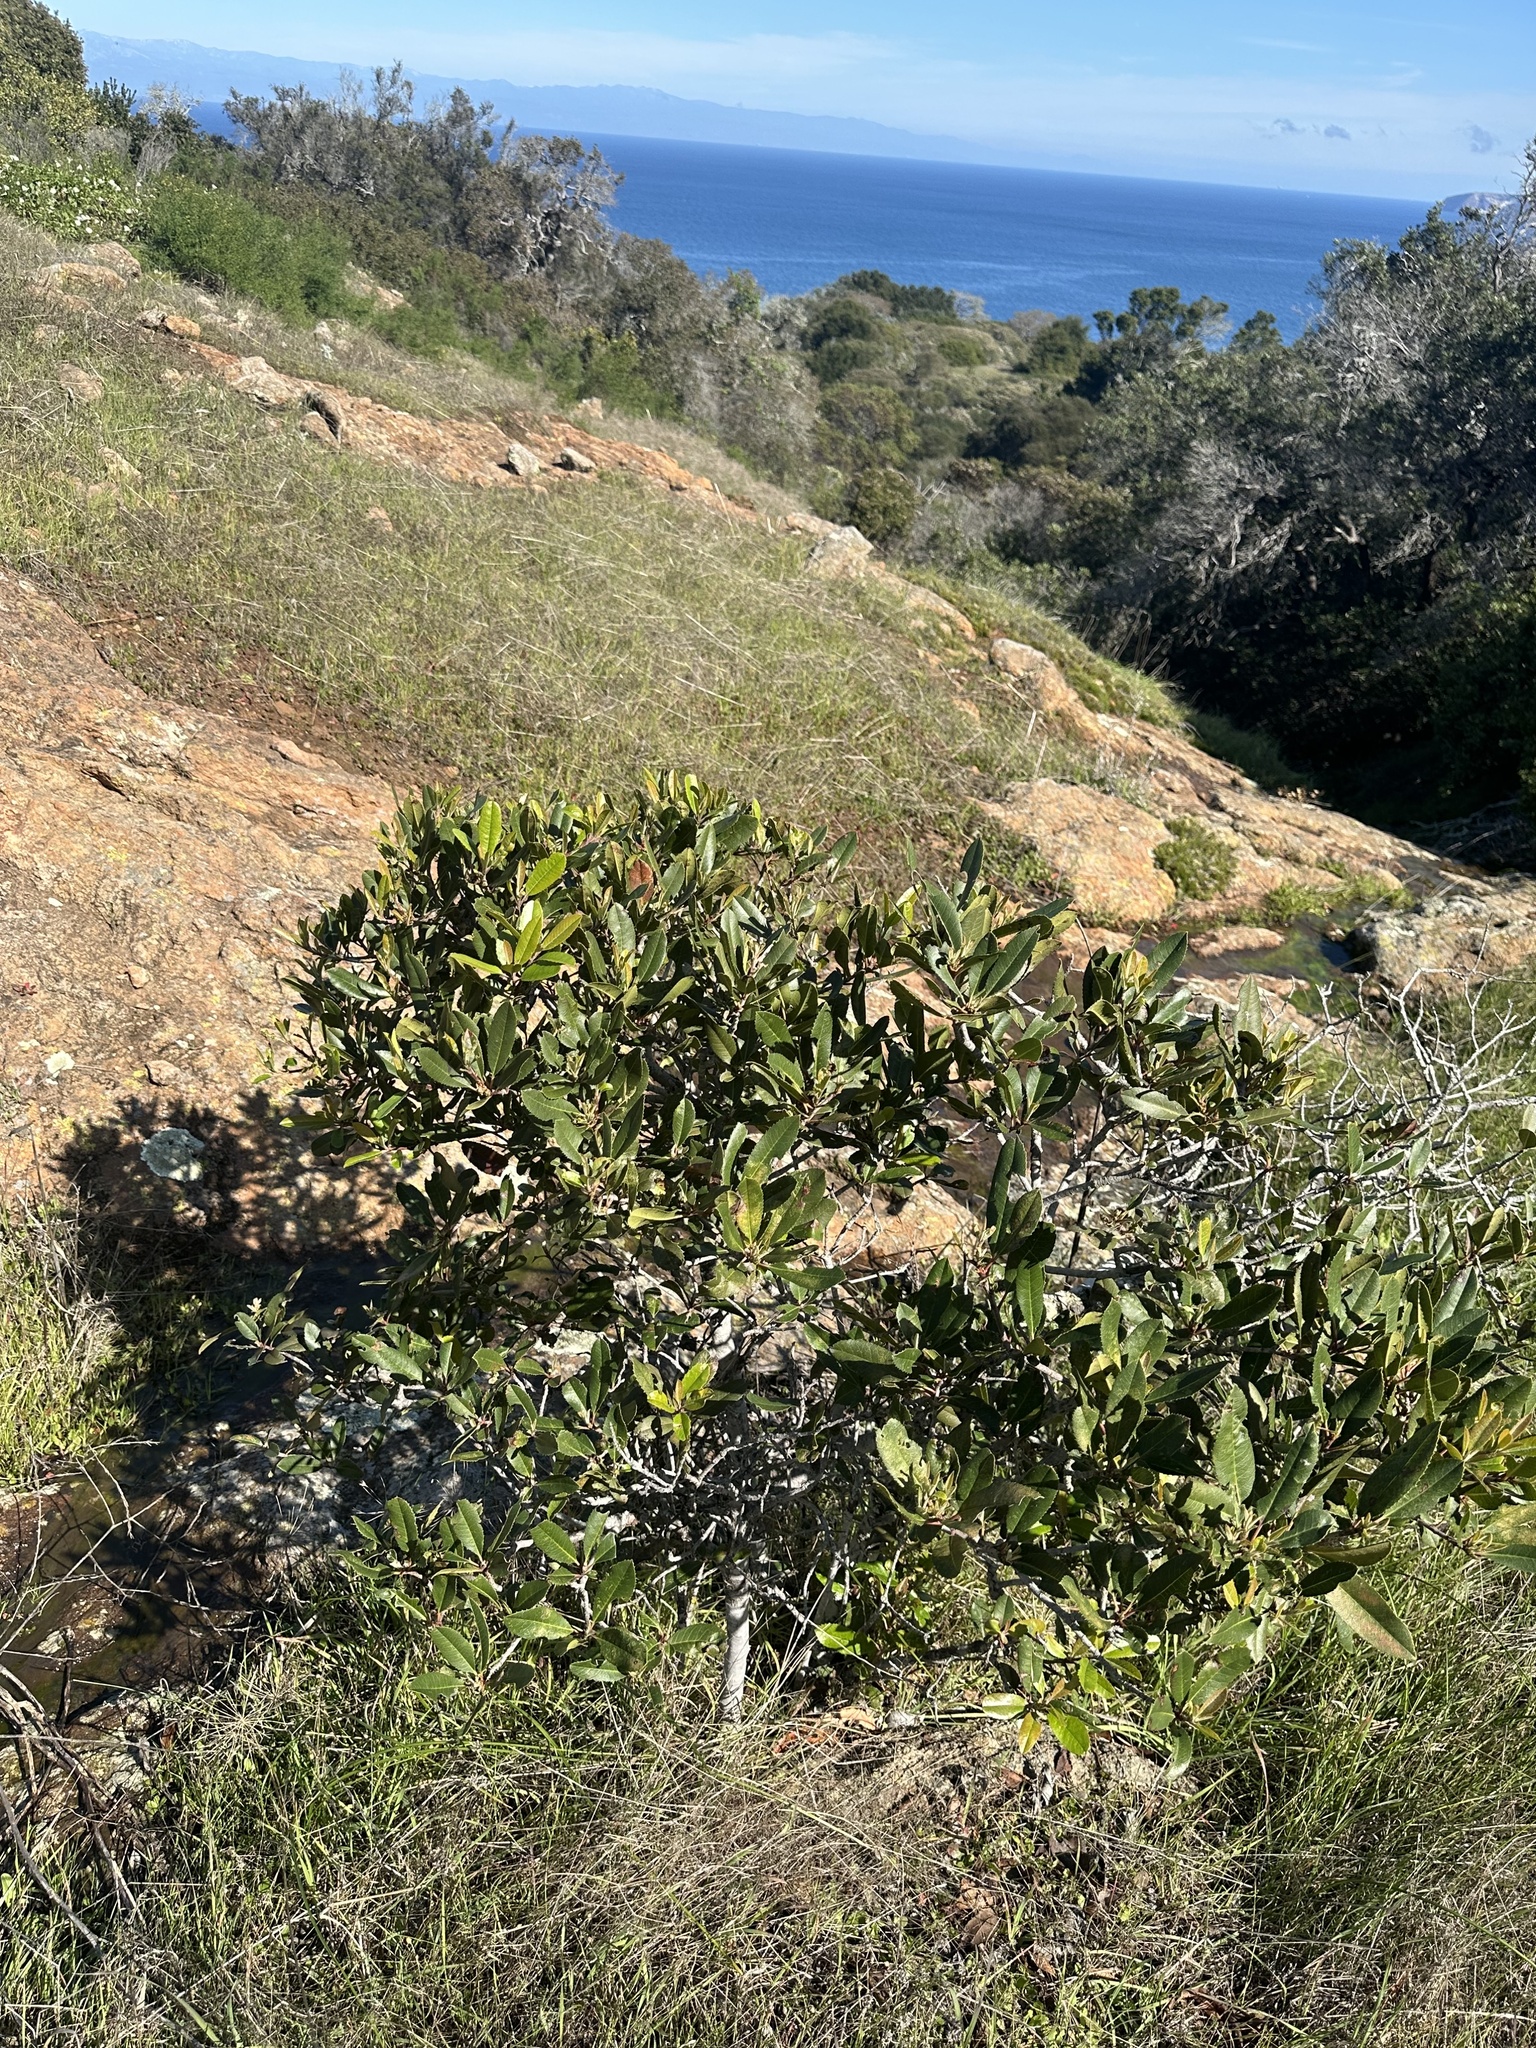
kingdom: Plantae
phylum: Tracheophyta
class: Magnoliopsida
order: Rosales
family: Rosaceae
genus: Heteromeles
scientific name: Heteromeles arbutifolia
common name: California-holly
